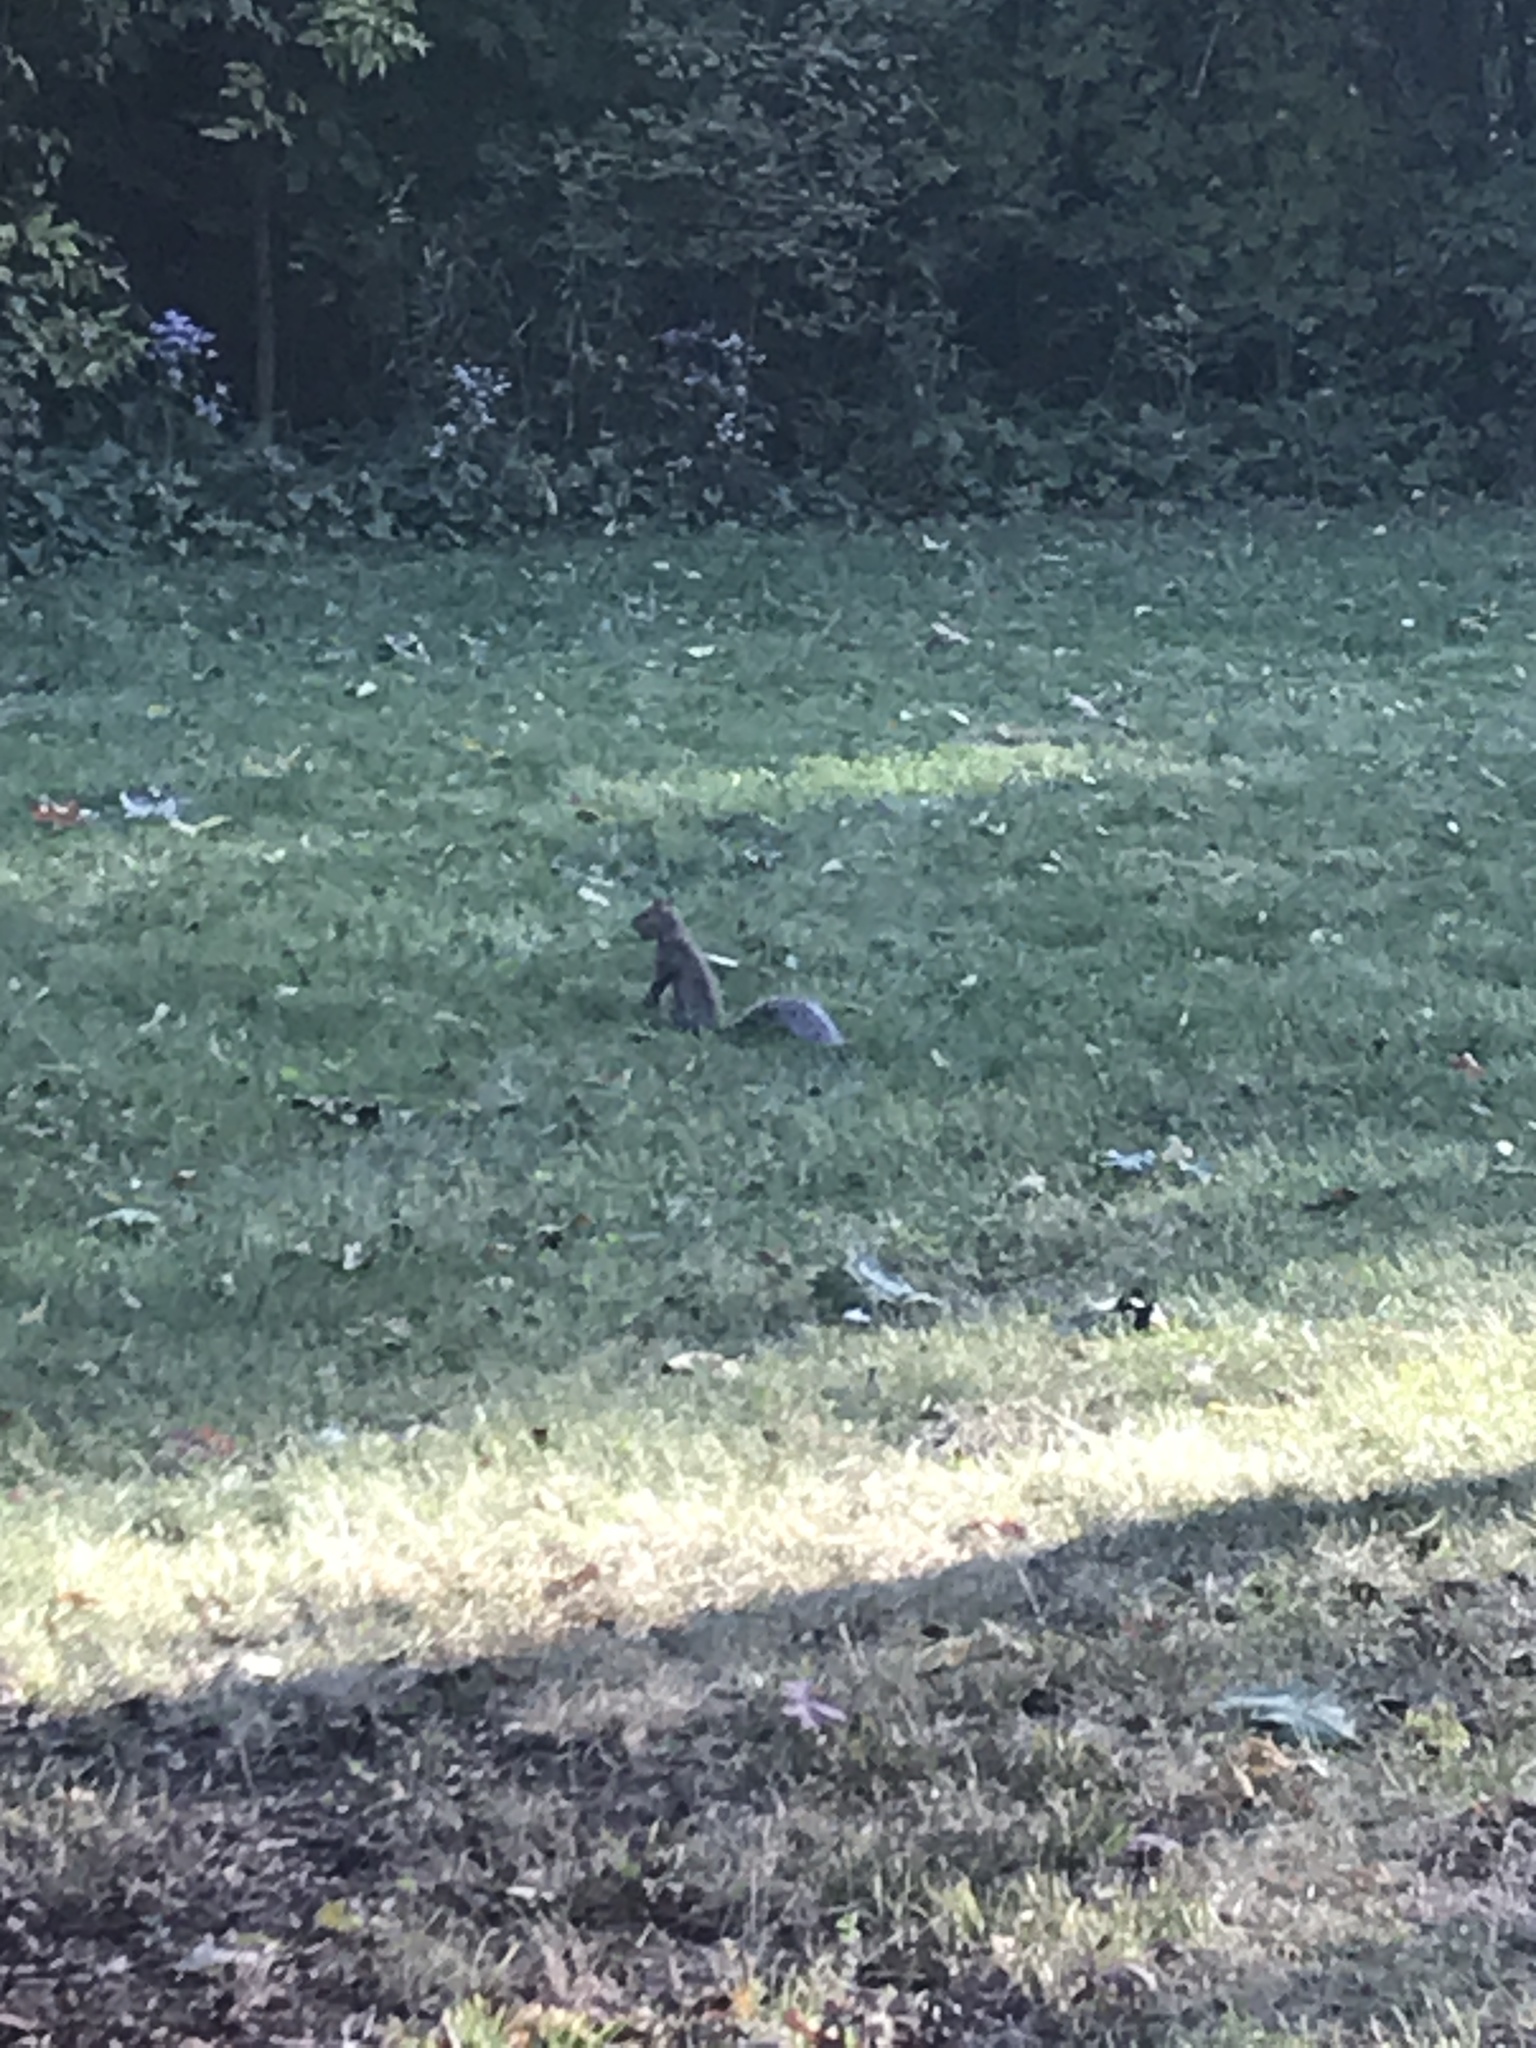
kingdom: Animalia
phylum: Chordata
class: Mammalia
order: Rodentia
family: Sciuridae
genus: Sciurus
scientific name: Sciurus carolinensis
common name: Eastern gray squirrel
